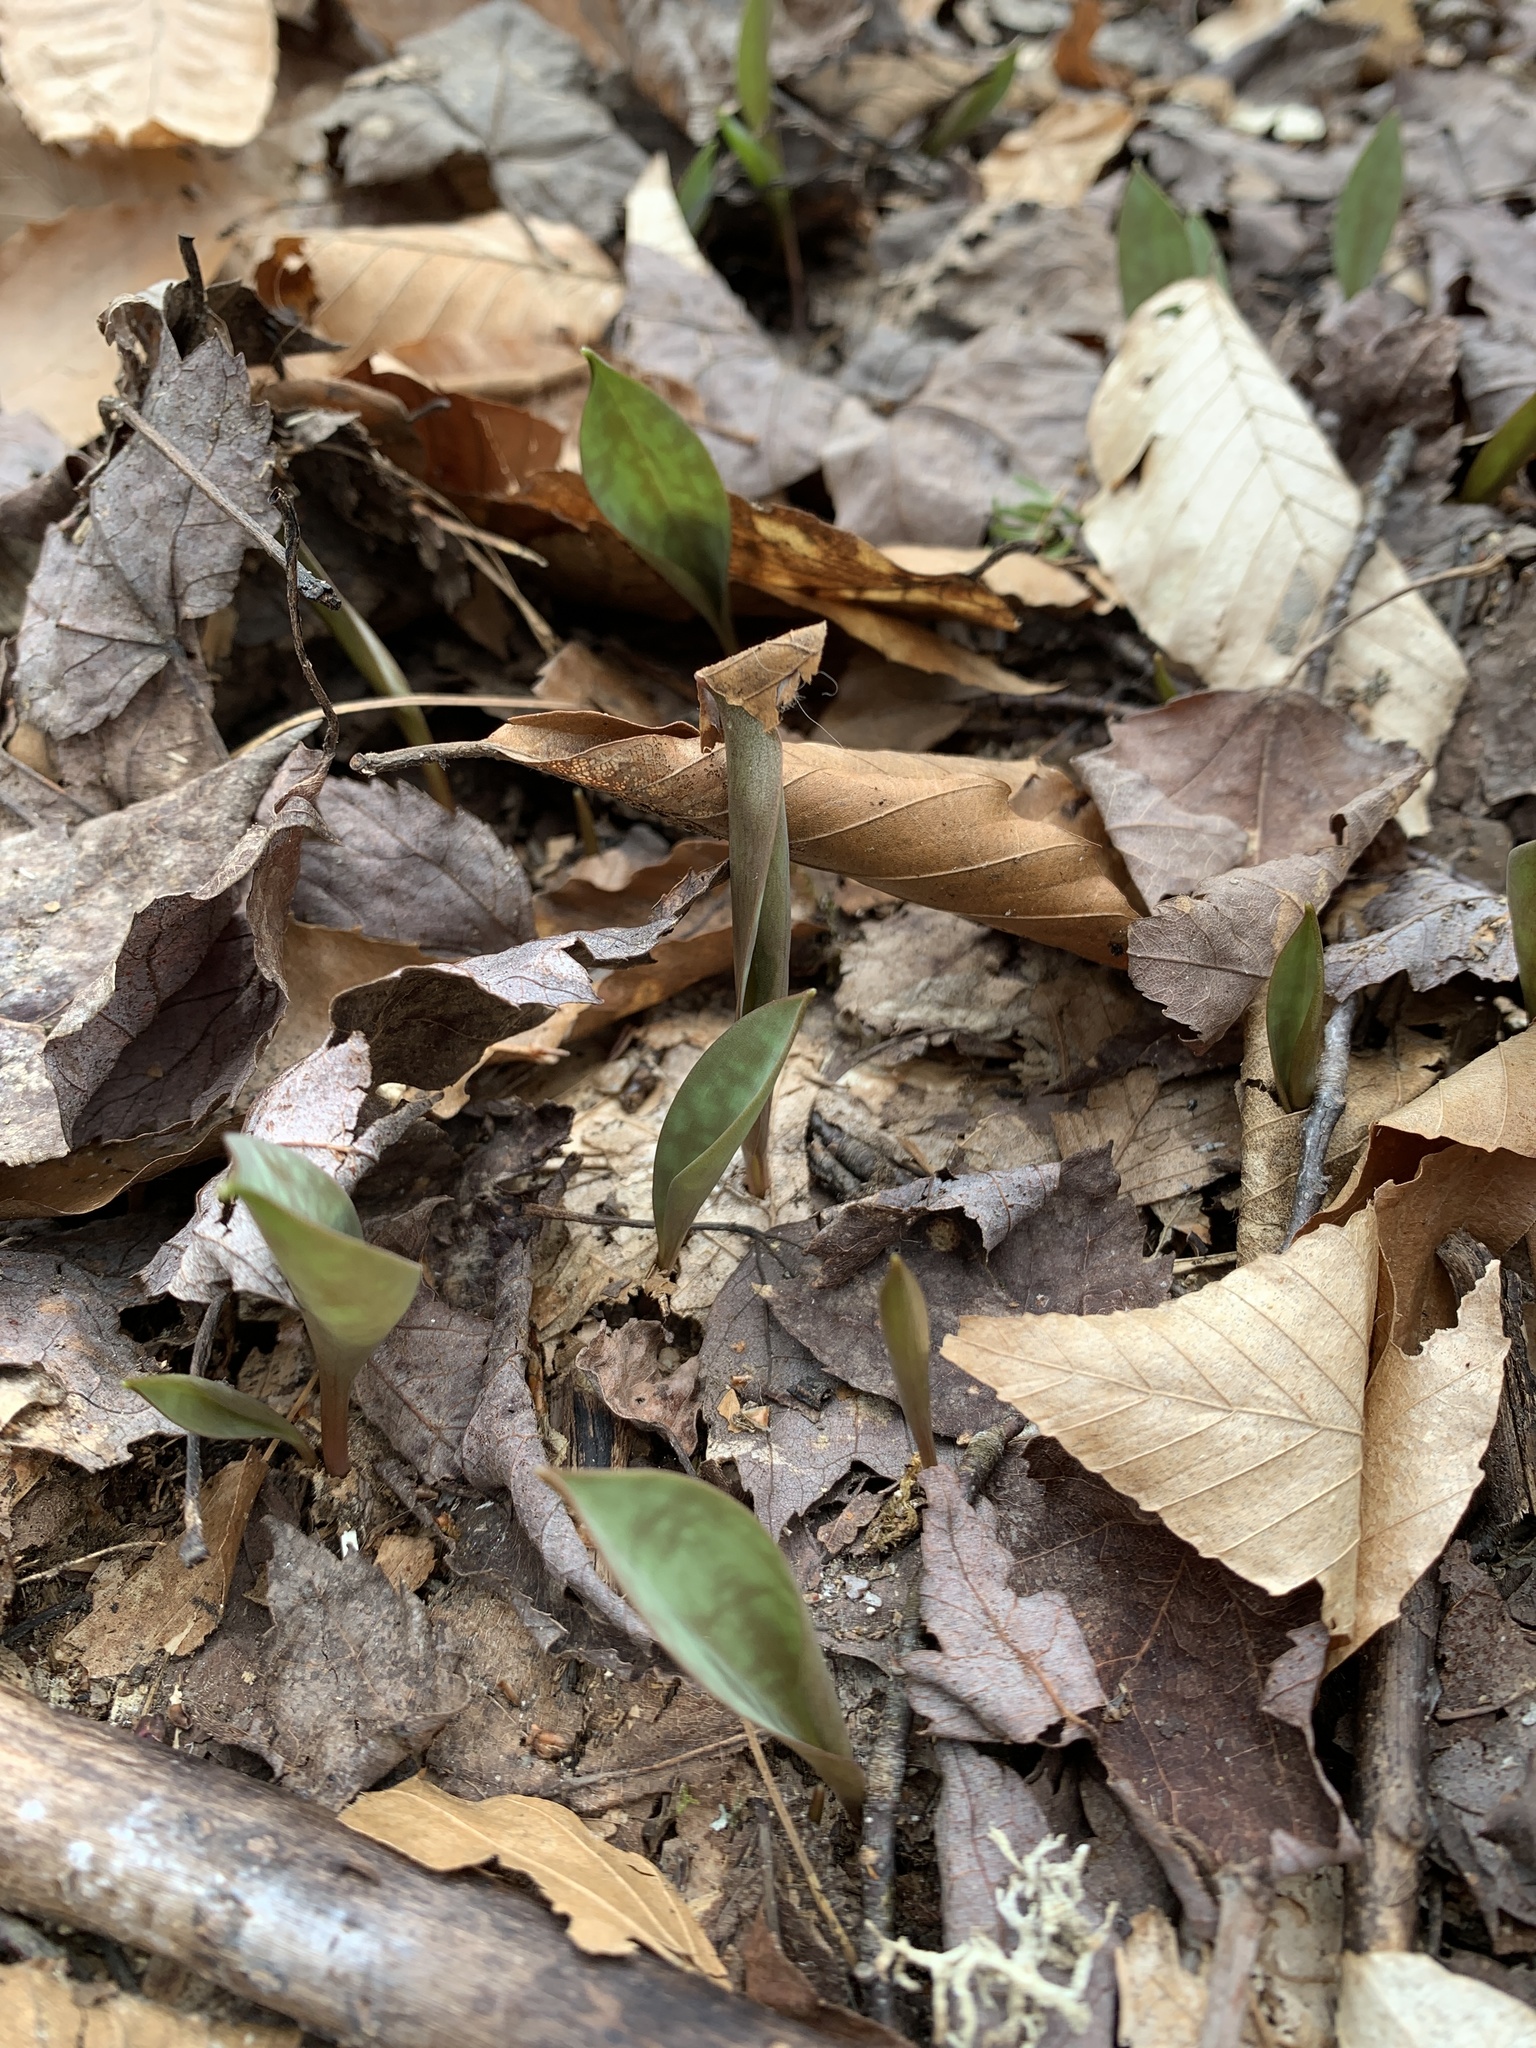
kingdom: Plantae
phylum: Tracheophyta
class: Liliopsida
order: Liliales
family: Liliaceae
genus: Erythronium
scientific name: Erythronium americanum
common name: Yellow adder's-tongue
